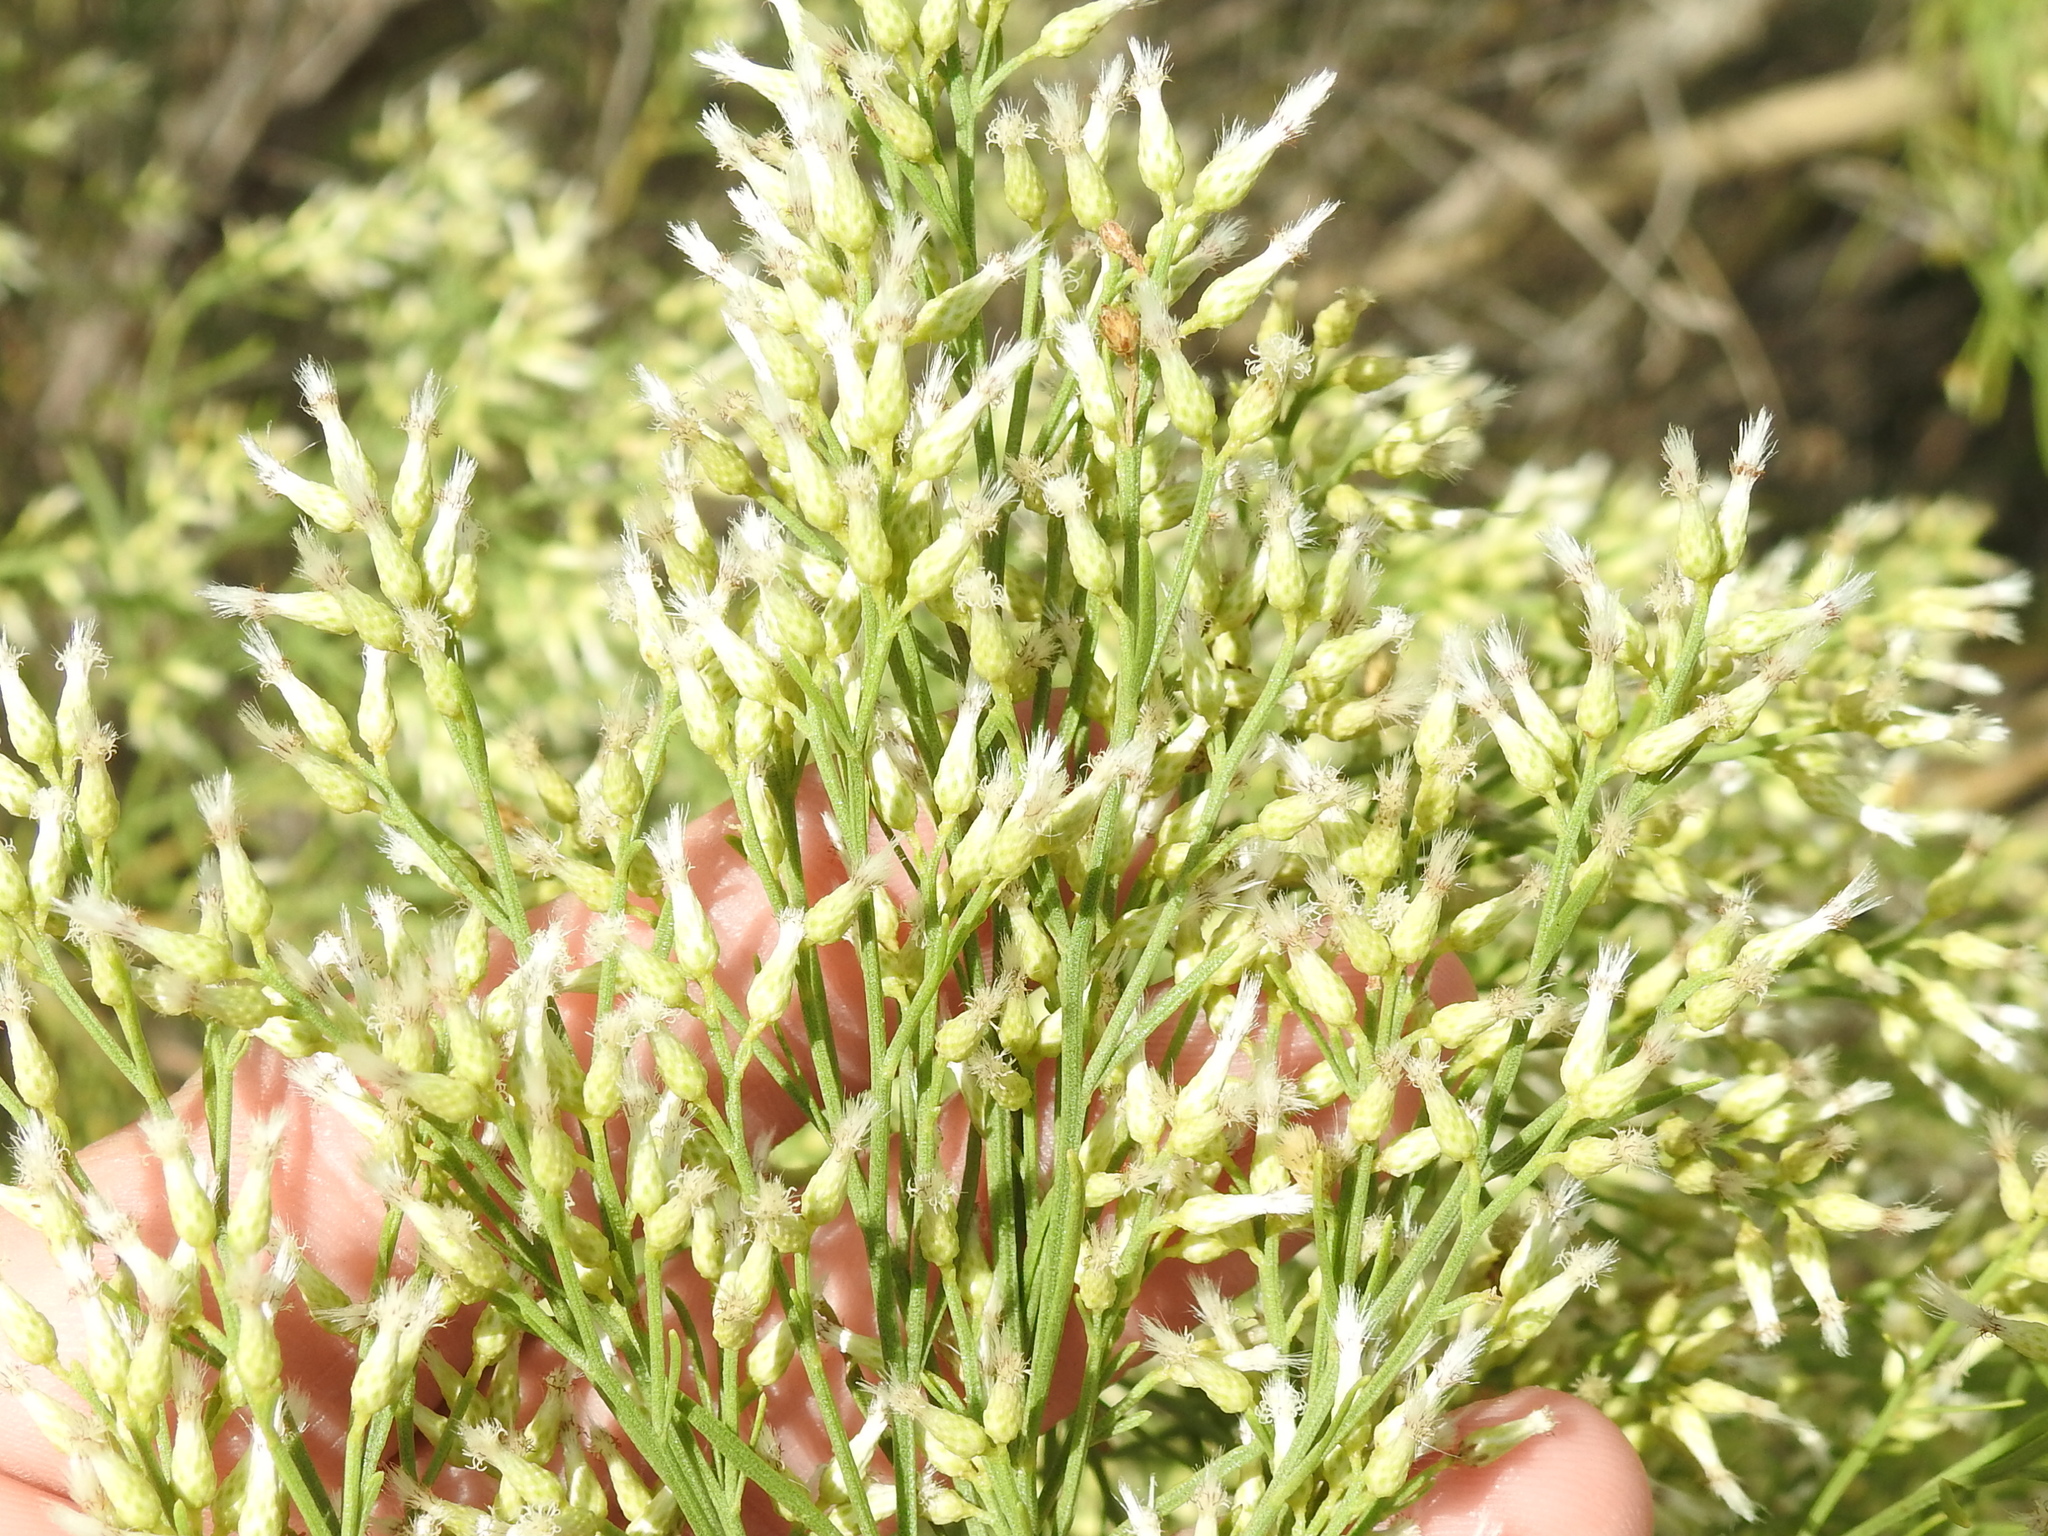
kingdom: Plantae
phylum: Tracheophyta
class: Magnoliopsida
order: Asterales
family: Asteraceae
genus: Baccharis
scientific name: Baccharis neglecta
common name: Roosevelt-weed
